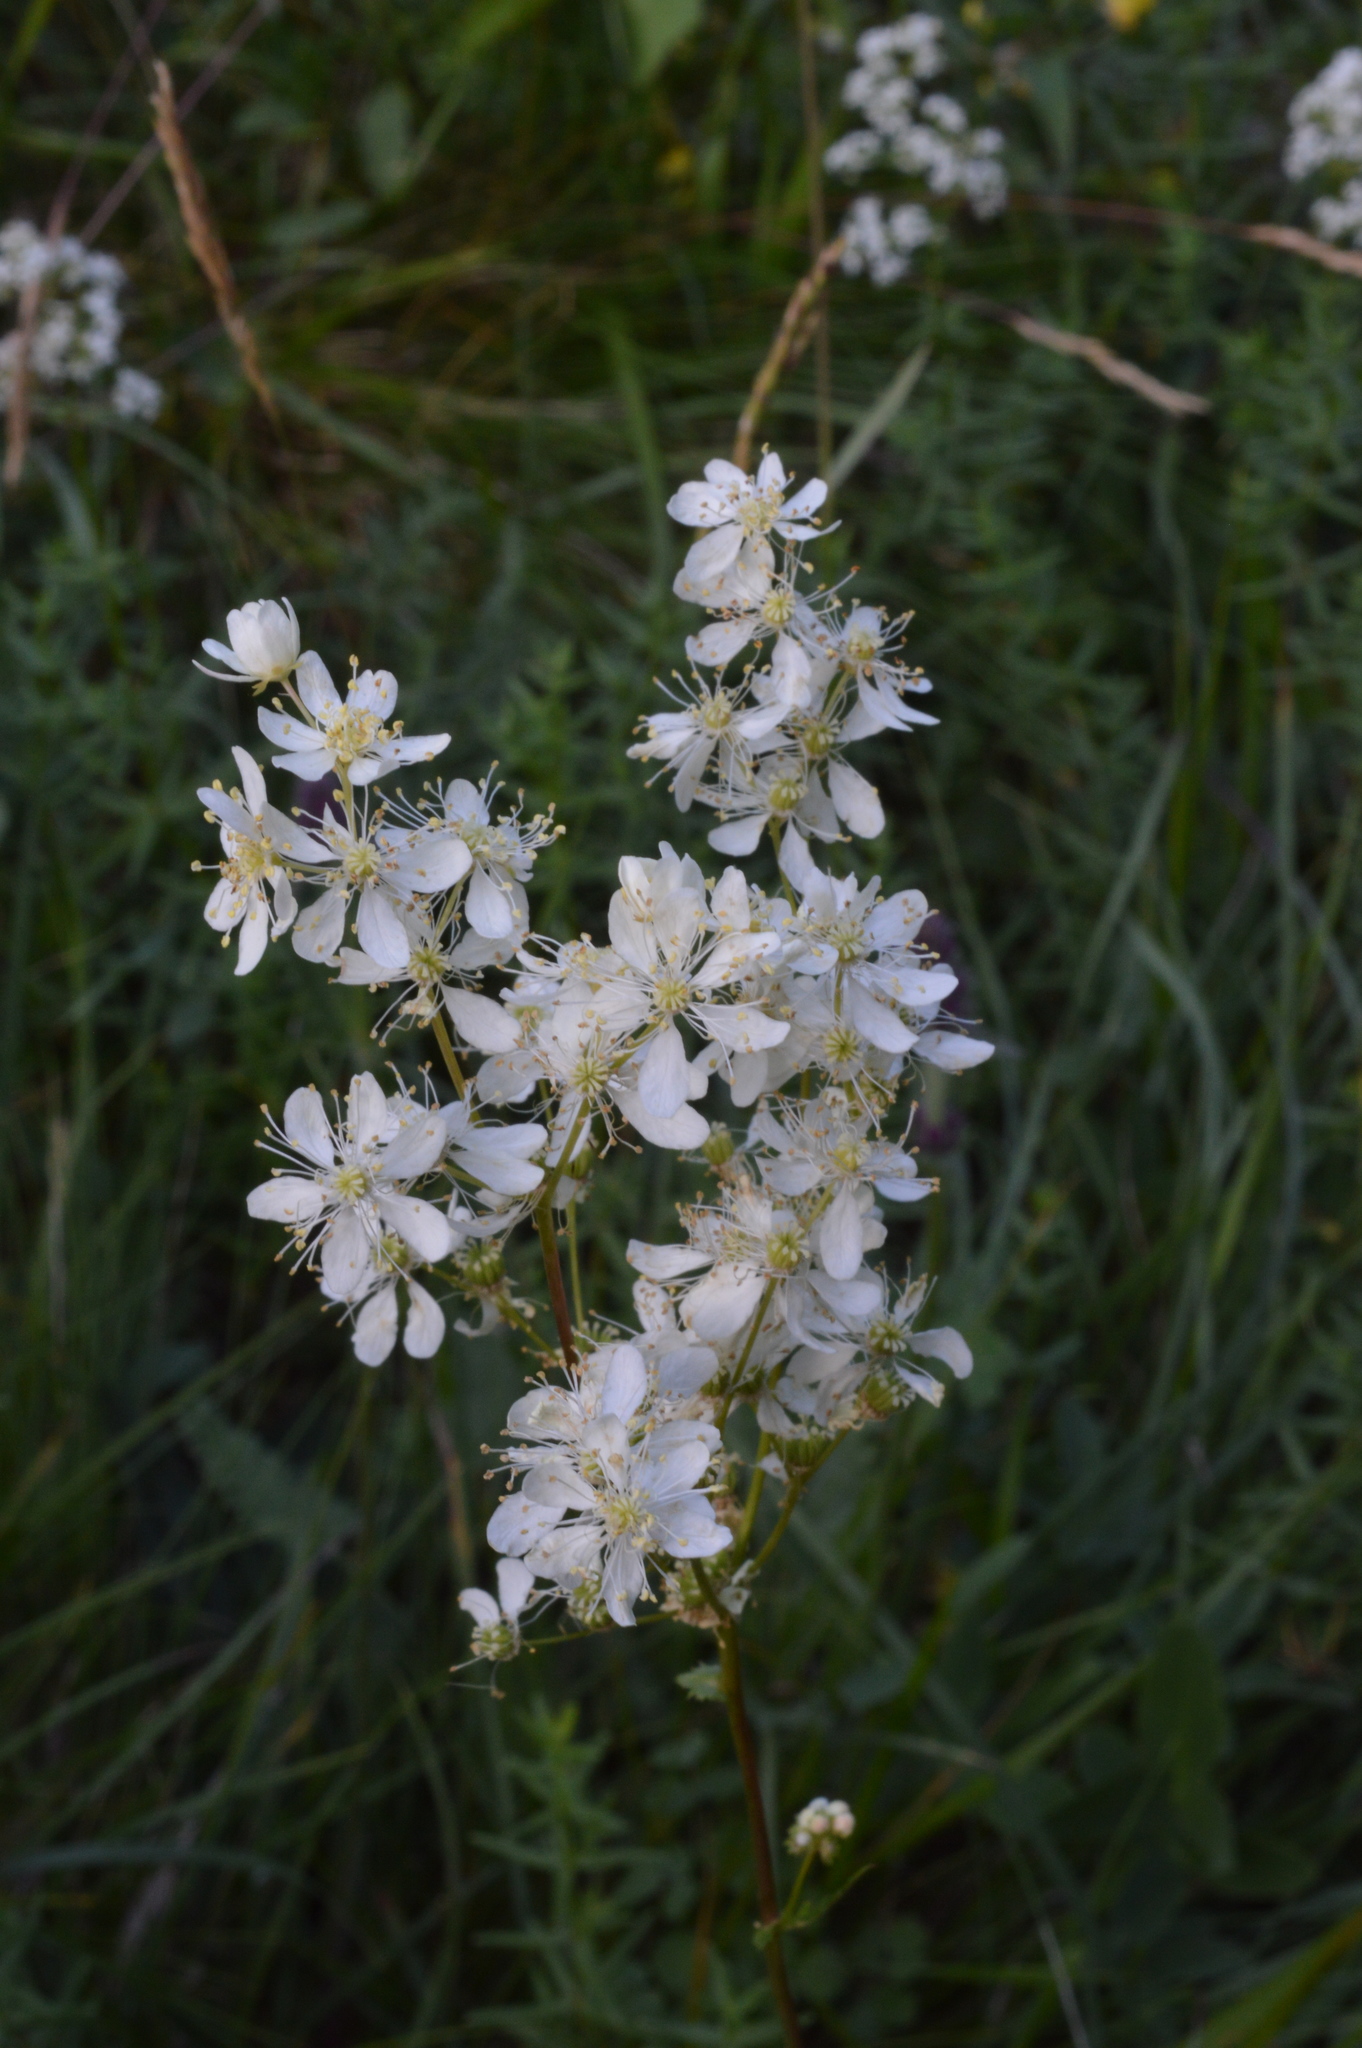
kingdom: Plantae
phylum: Tracheophyta
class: Magnoliopsida
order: Rosales
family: Rosaceae
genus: Filipendula
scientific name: Filipendula vulgaris
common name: Dropwort
